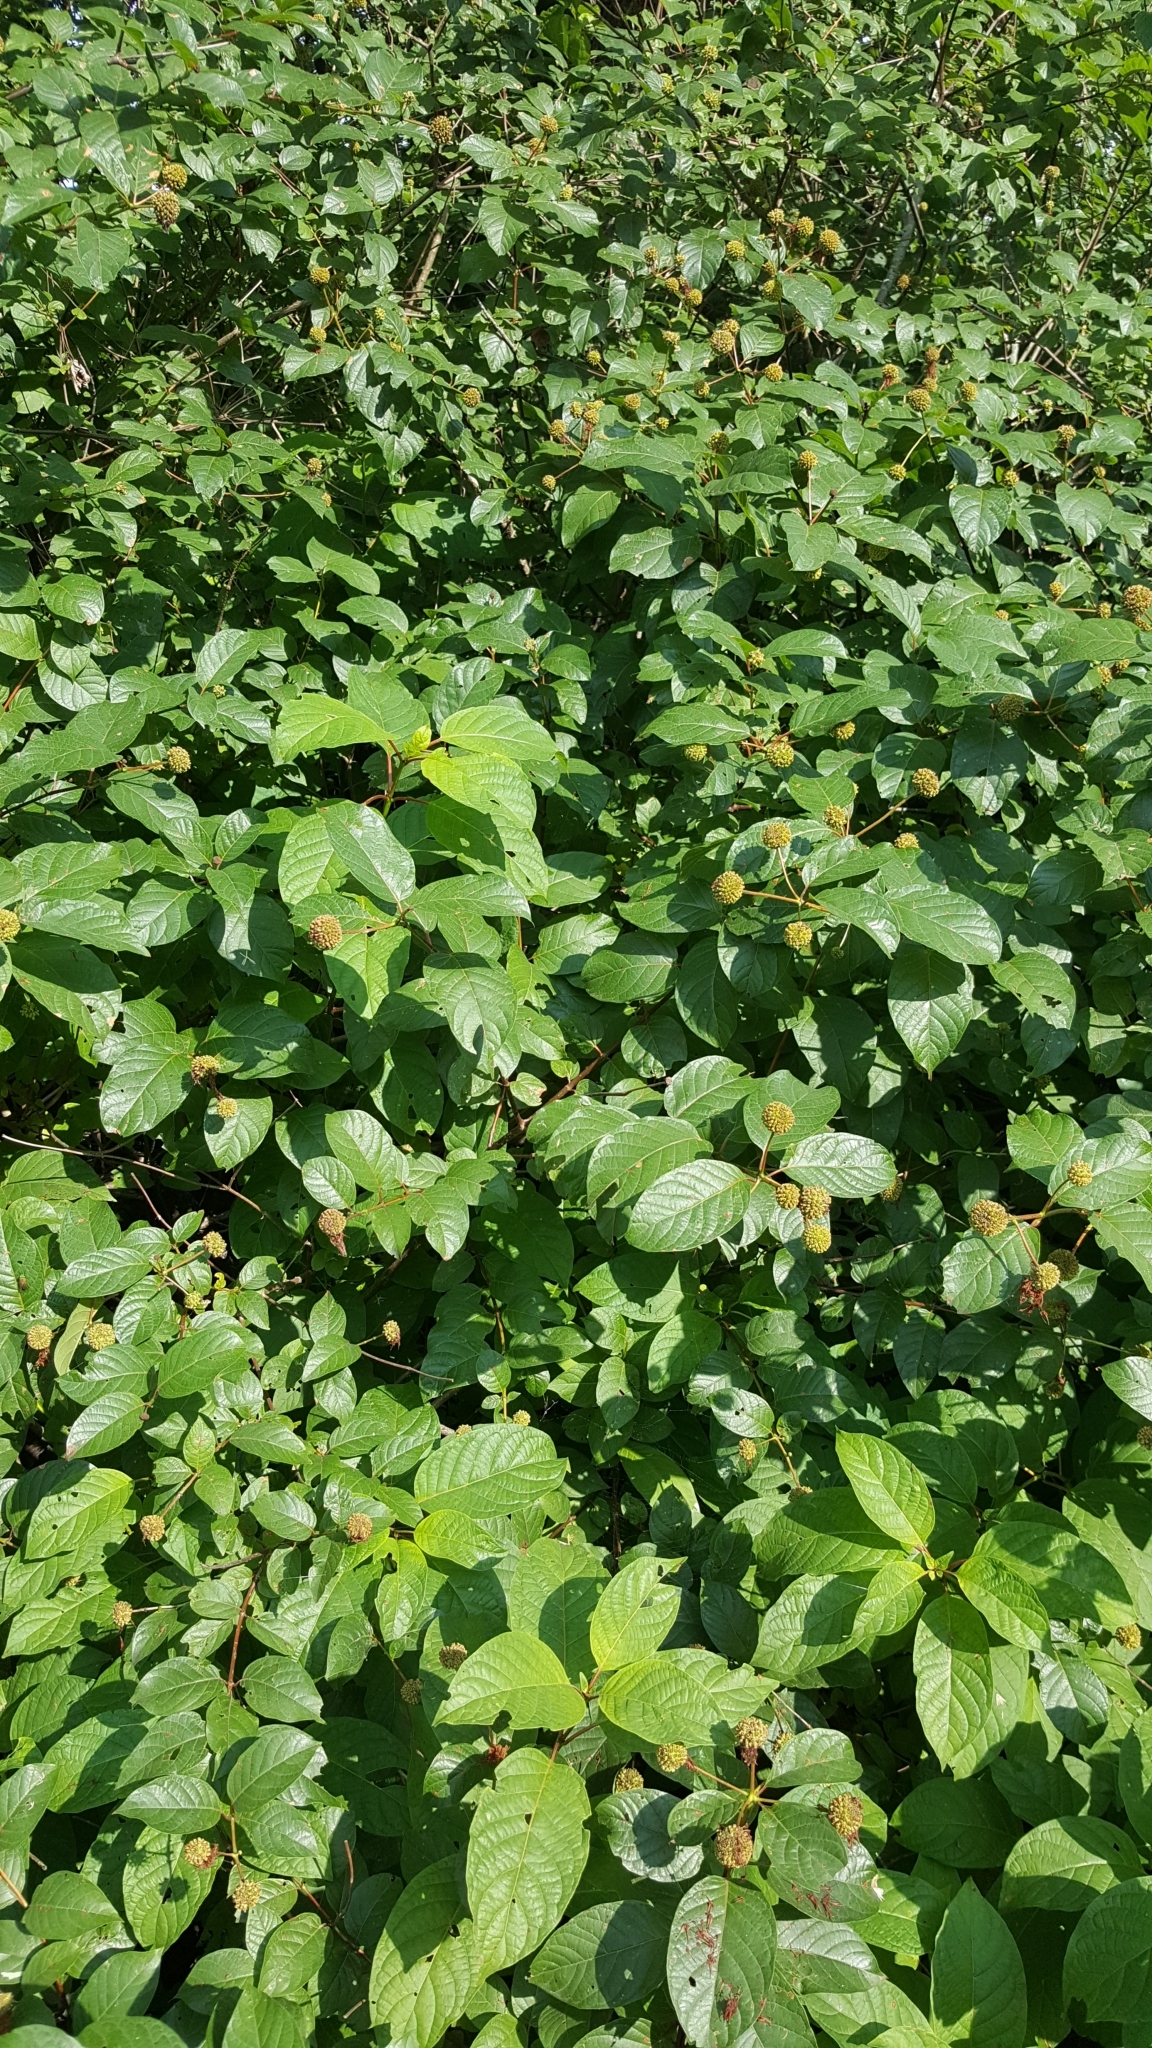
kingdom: Plantae
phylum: Tracheophyta
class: Magnoliopsida
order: Gentianales
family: Rubiaceae
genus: Cephalanthus
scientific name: Cephalanthus occidentalis
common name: Button-willow
